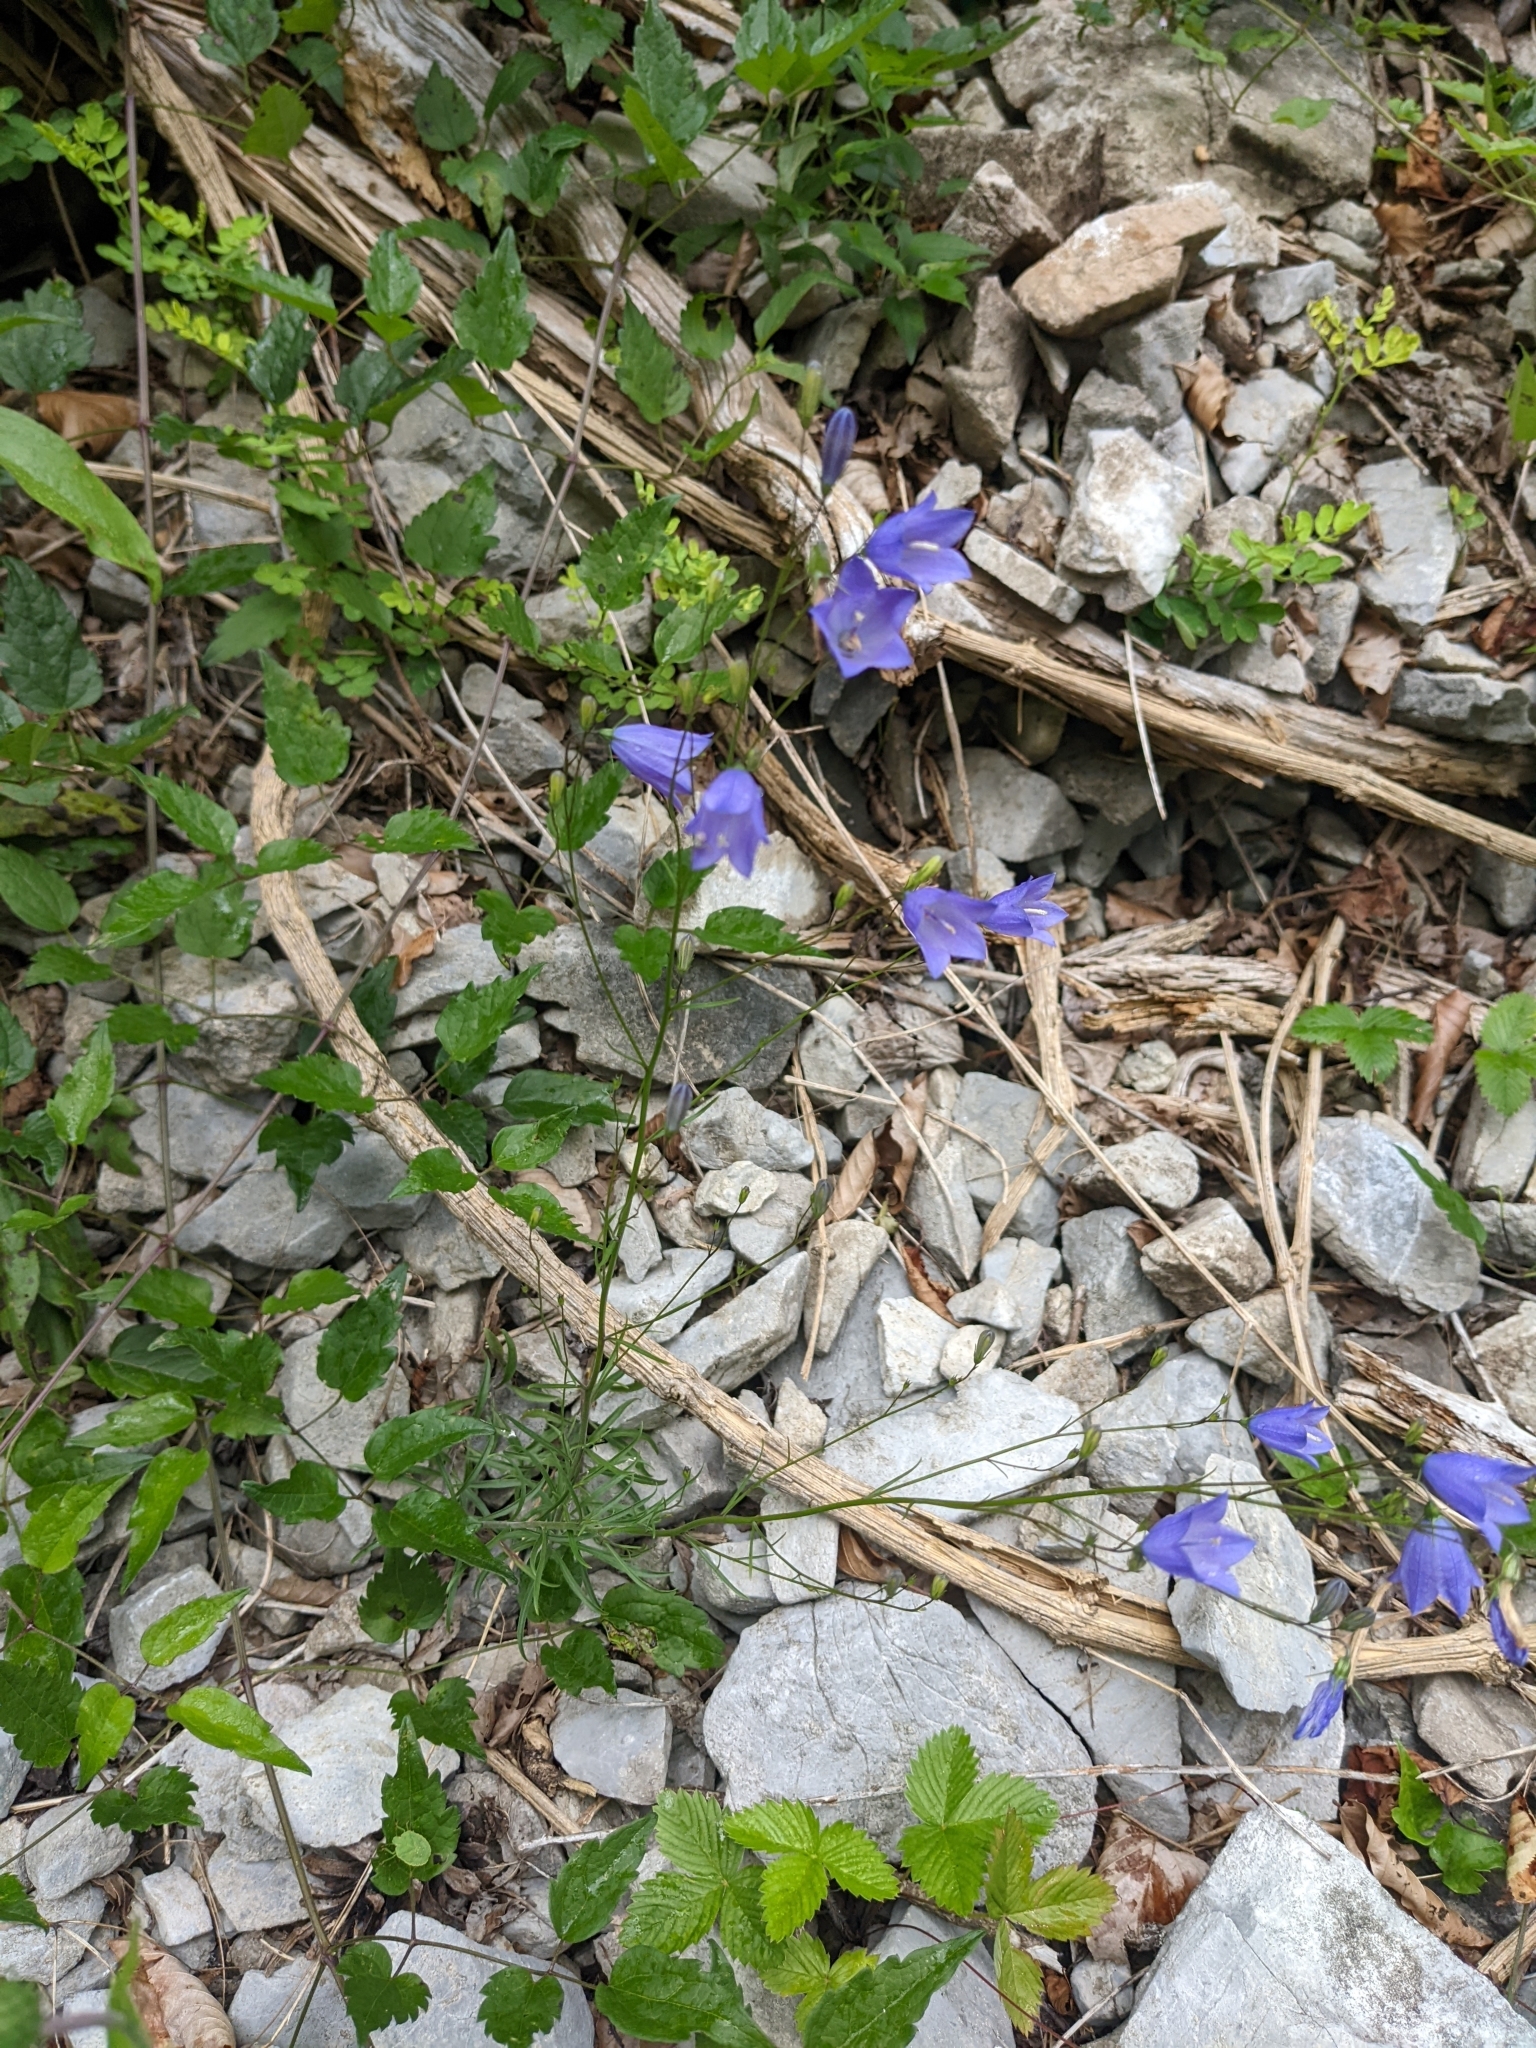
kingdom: Plantae
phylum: Tracheophyta
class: Magnoliopsida
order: Asterales
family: Campanulaceae
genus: Campanula
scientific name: Campanula rotundifolia
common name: Harebell
